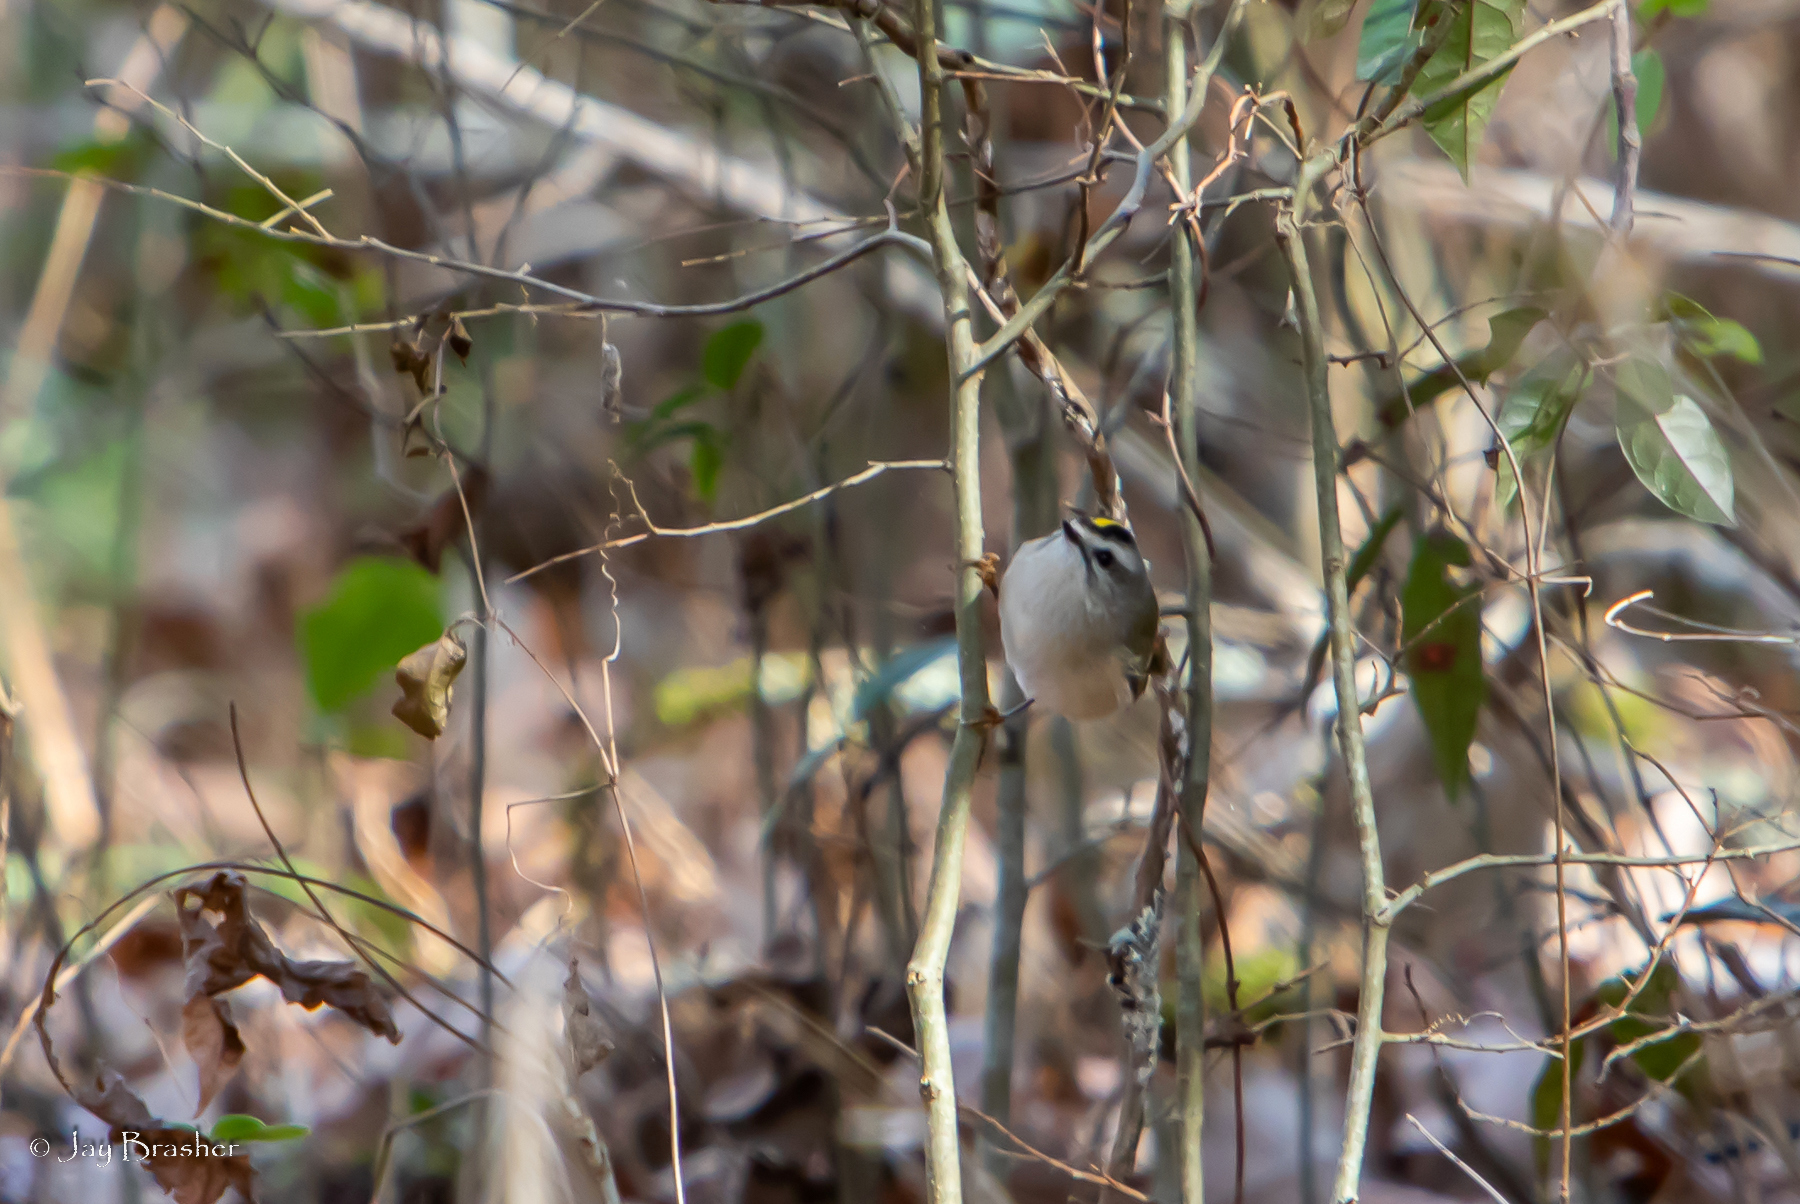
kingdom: Animalia
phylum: Chordata
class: Aves
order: Passeriformes
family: Regulidae
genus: Regulus
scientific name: Regulus satrapa
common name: Golden-crowned kinglet
